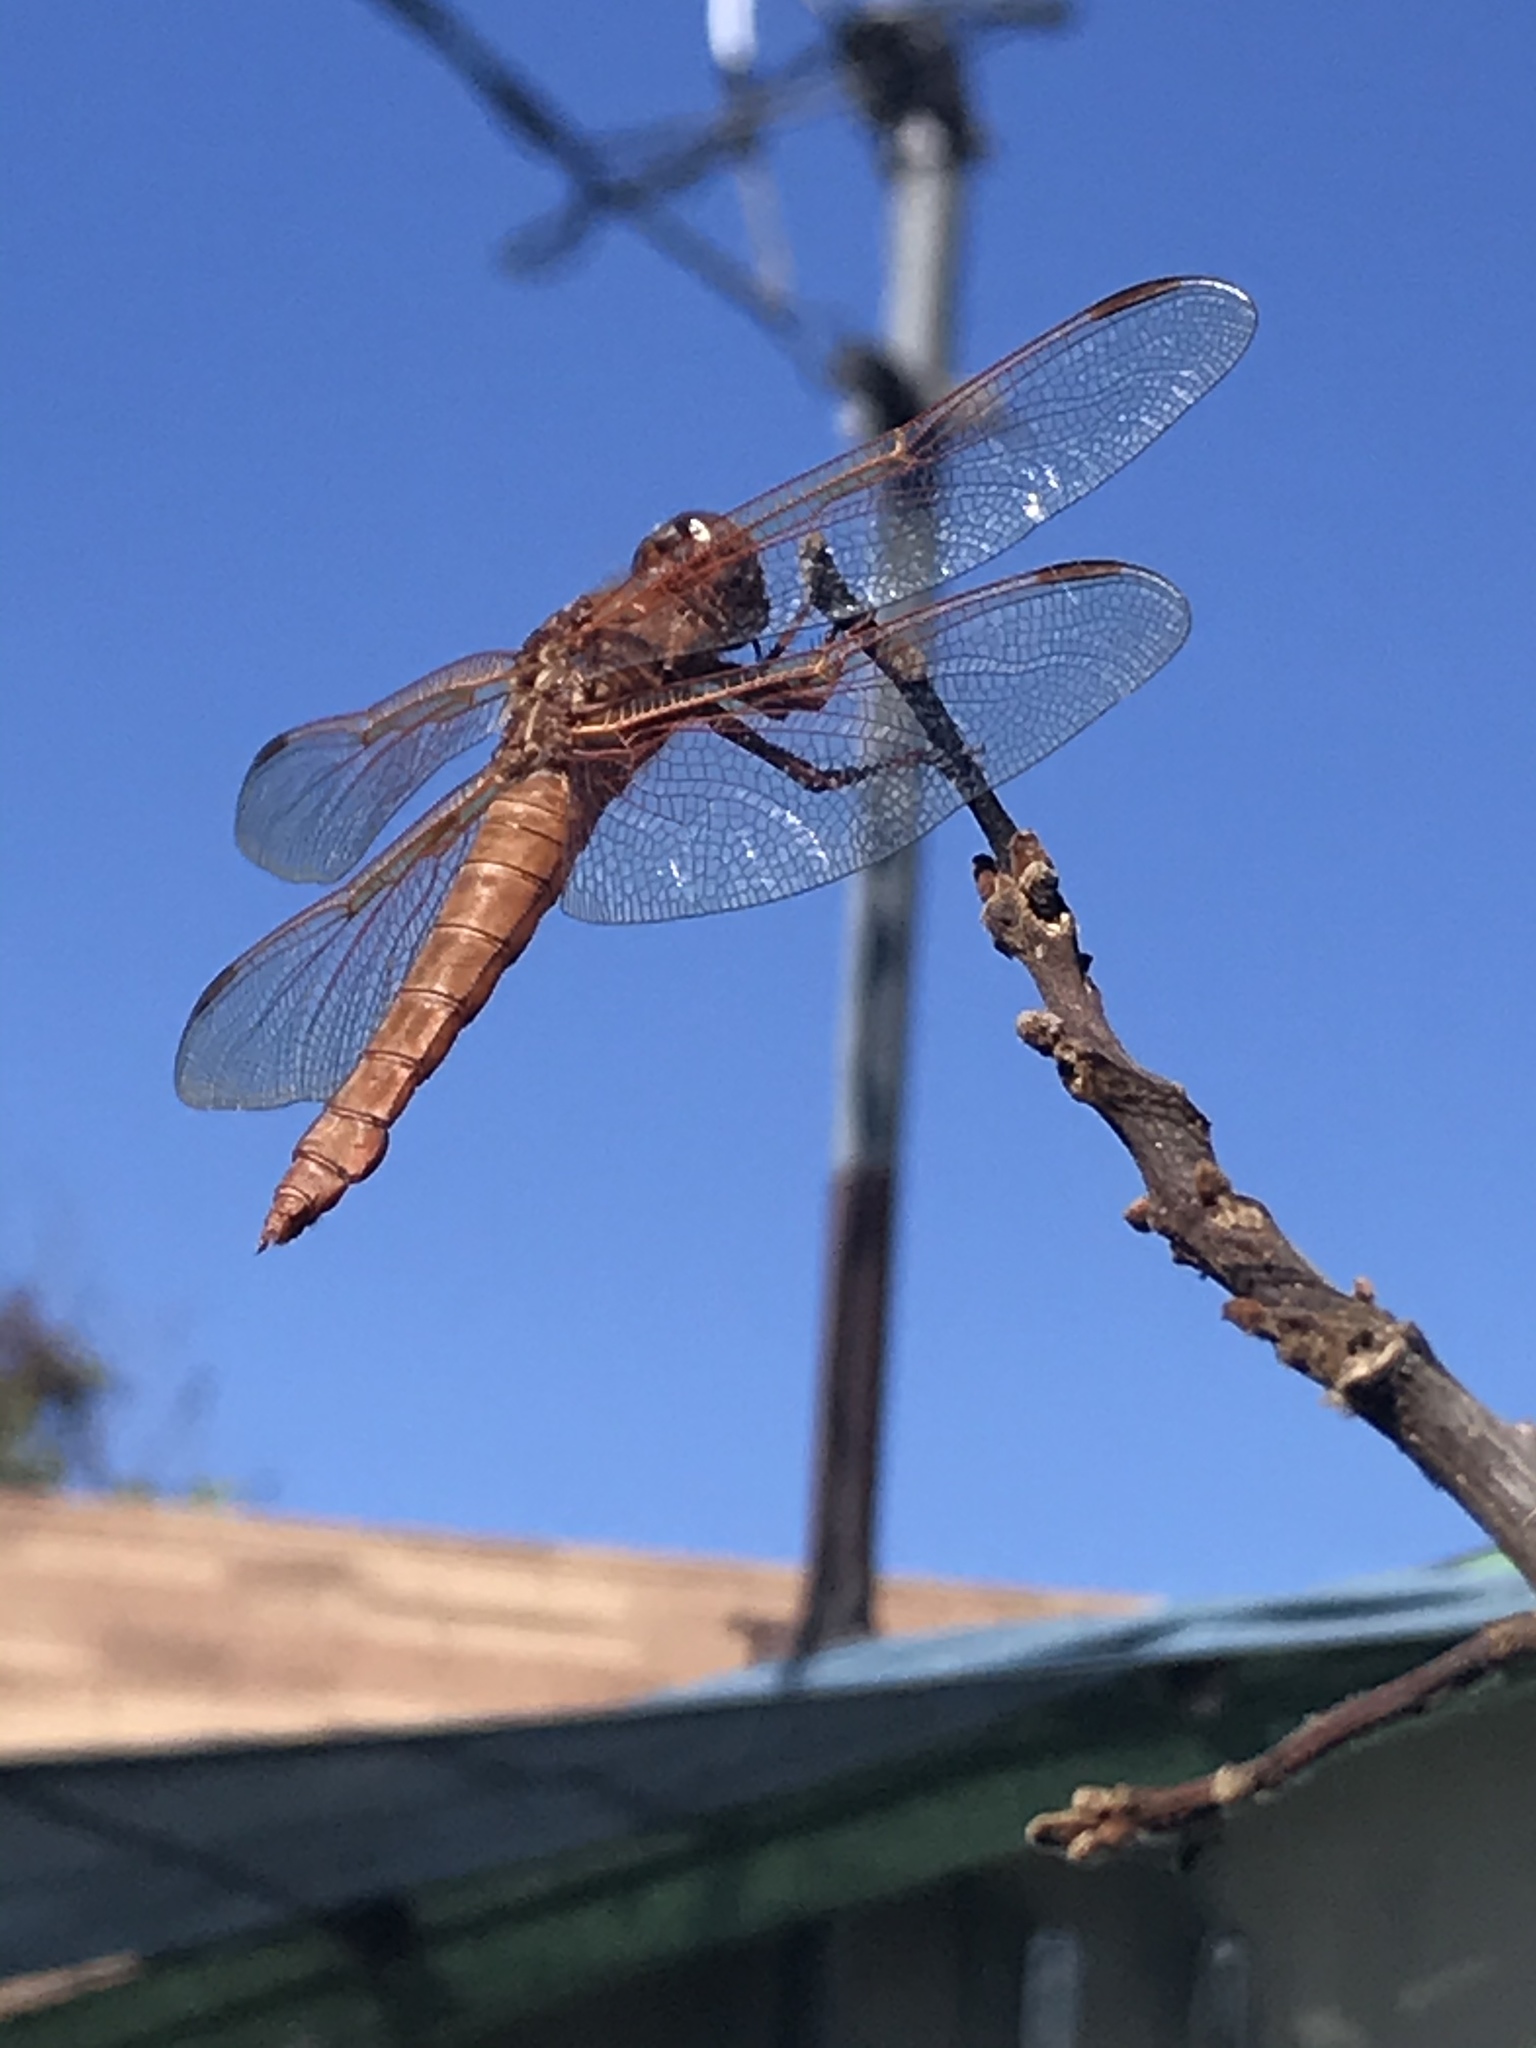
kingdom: Animalia
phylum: Arthropoda
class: Insecta
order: Odonata
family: Libellulidae
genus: Libellula
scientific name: Libellula saturata
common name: Flame skimmer
